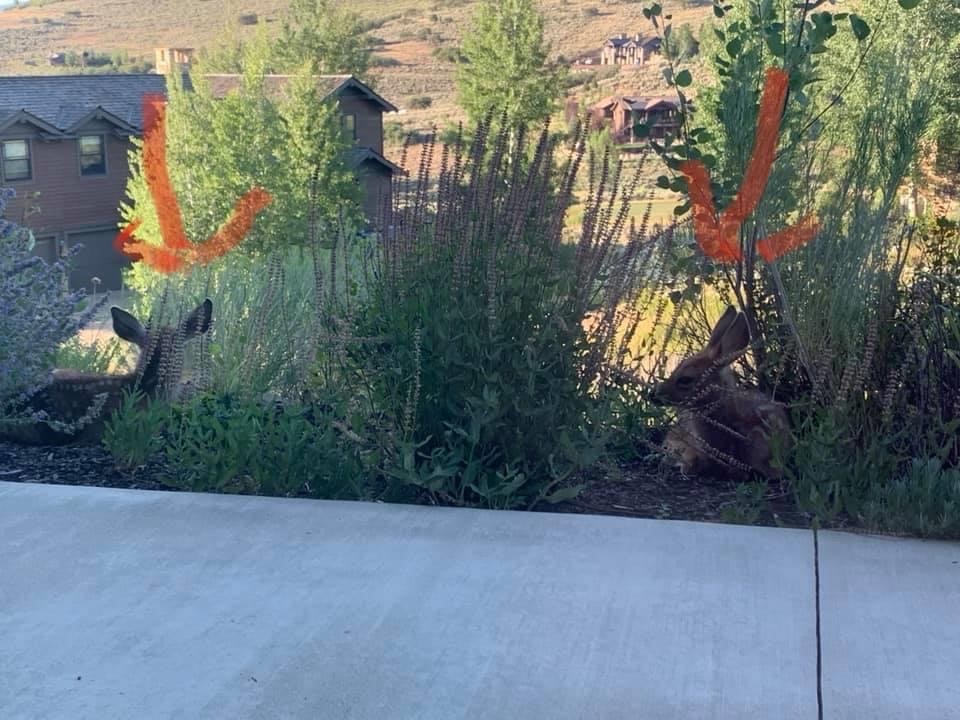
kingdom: Animalia
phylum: Chordata
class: Mammalia
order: Artiodactyla
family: Cervidae
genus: Odocoileus
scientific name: Odocoileus hemionus
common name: Mule deer
